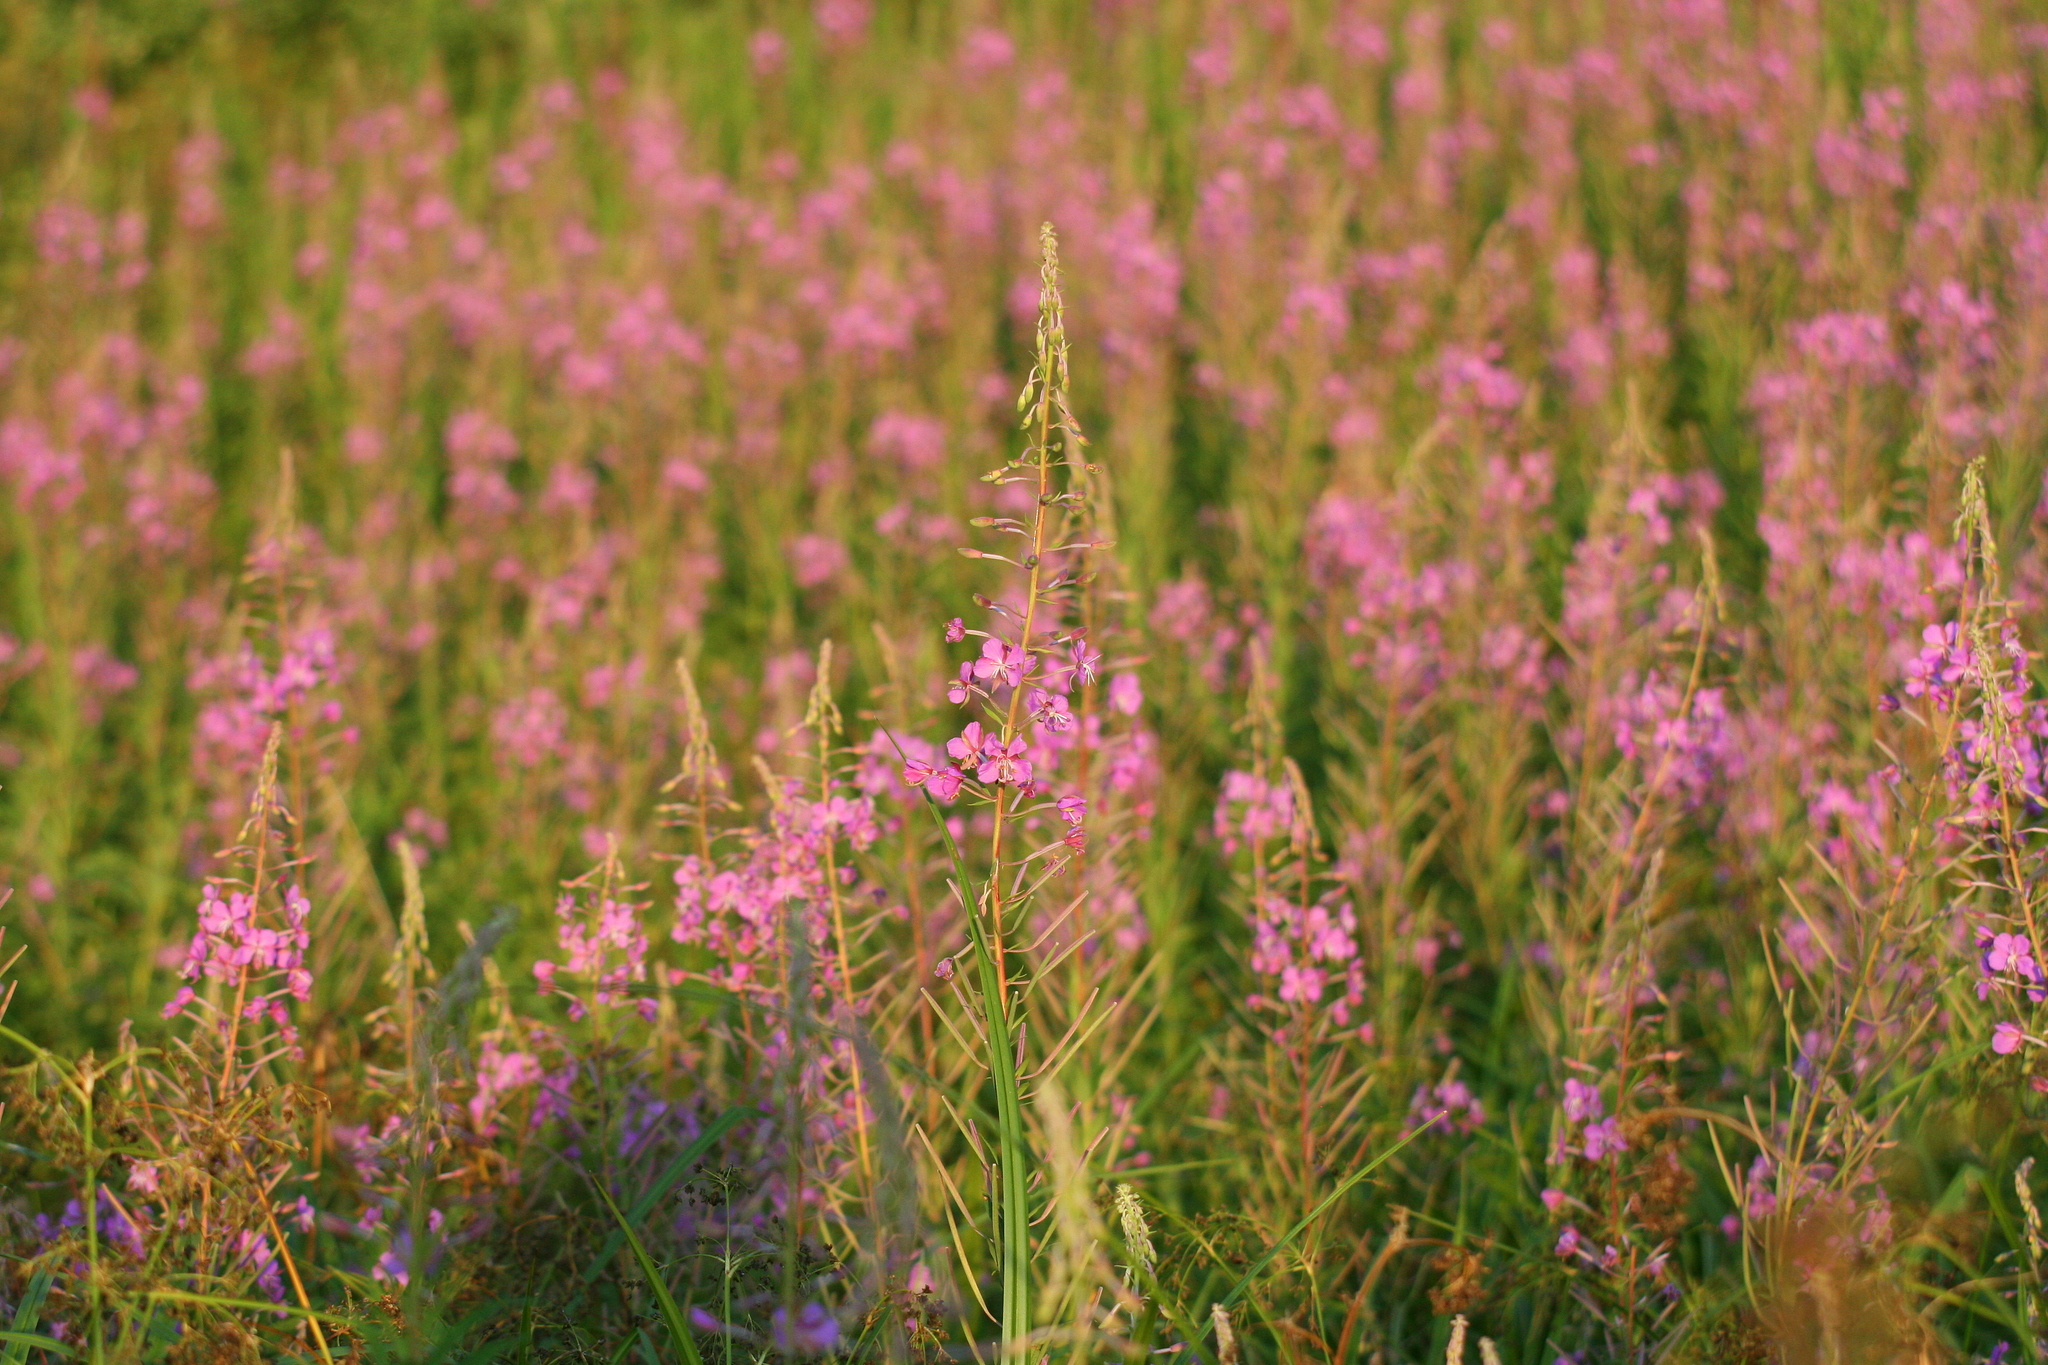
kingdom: Plantae
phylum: Tracheophyta
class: Magnoliopsida
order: Myrtales
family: Onagraceae
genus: Chamaenerion
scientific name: Chamaenerion angustifolium
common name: Fireweed
